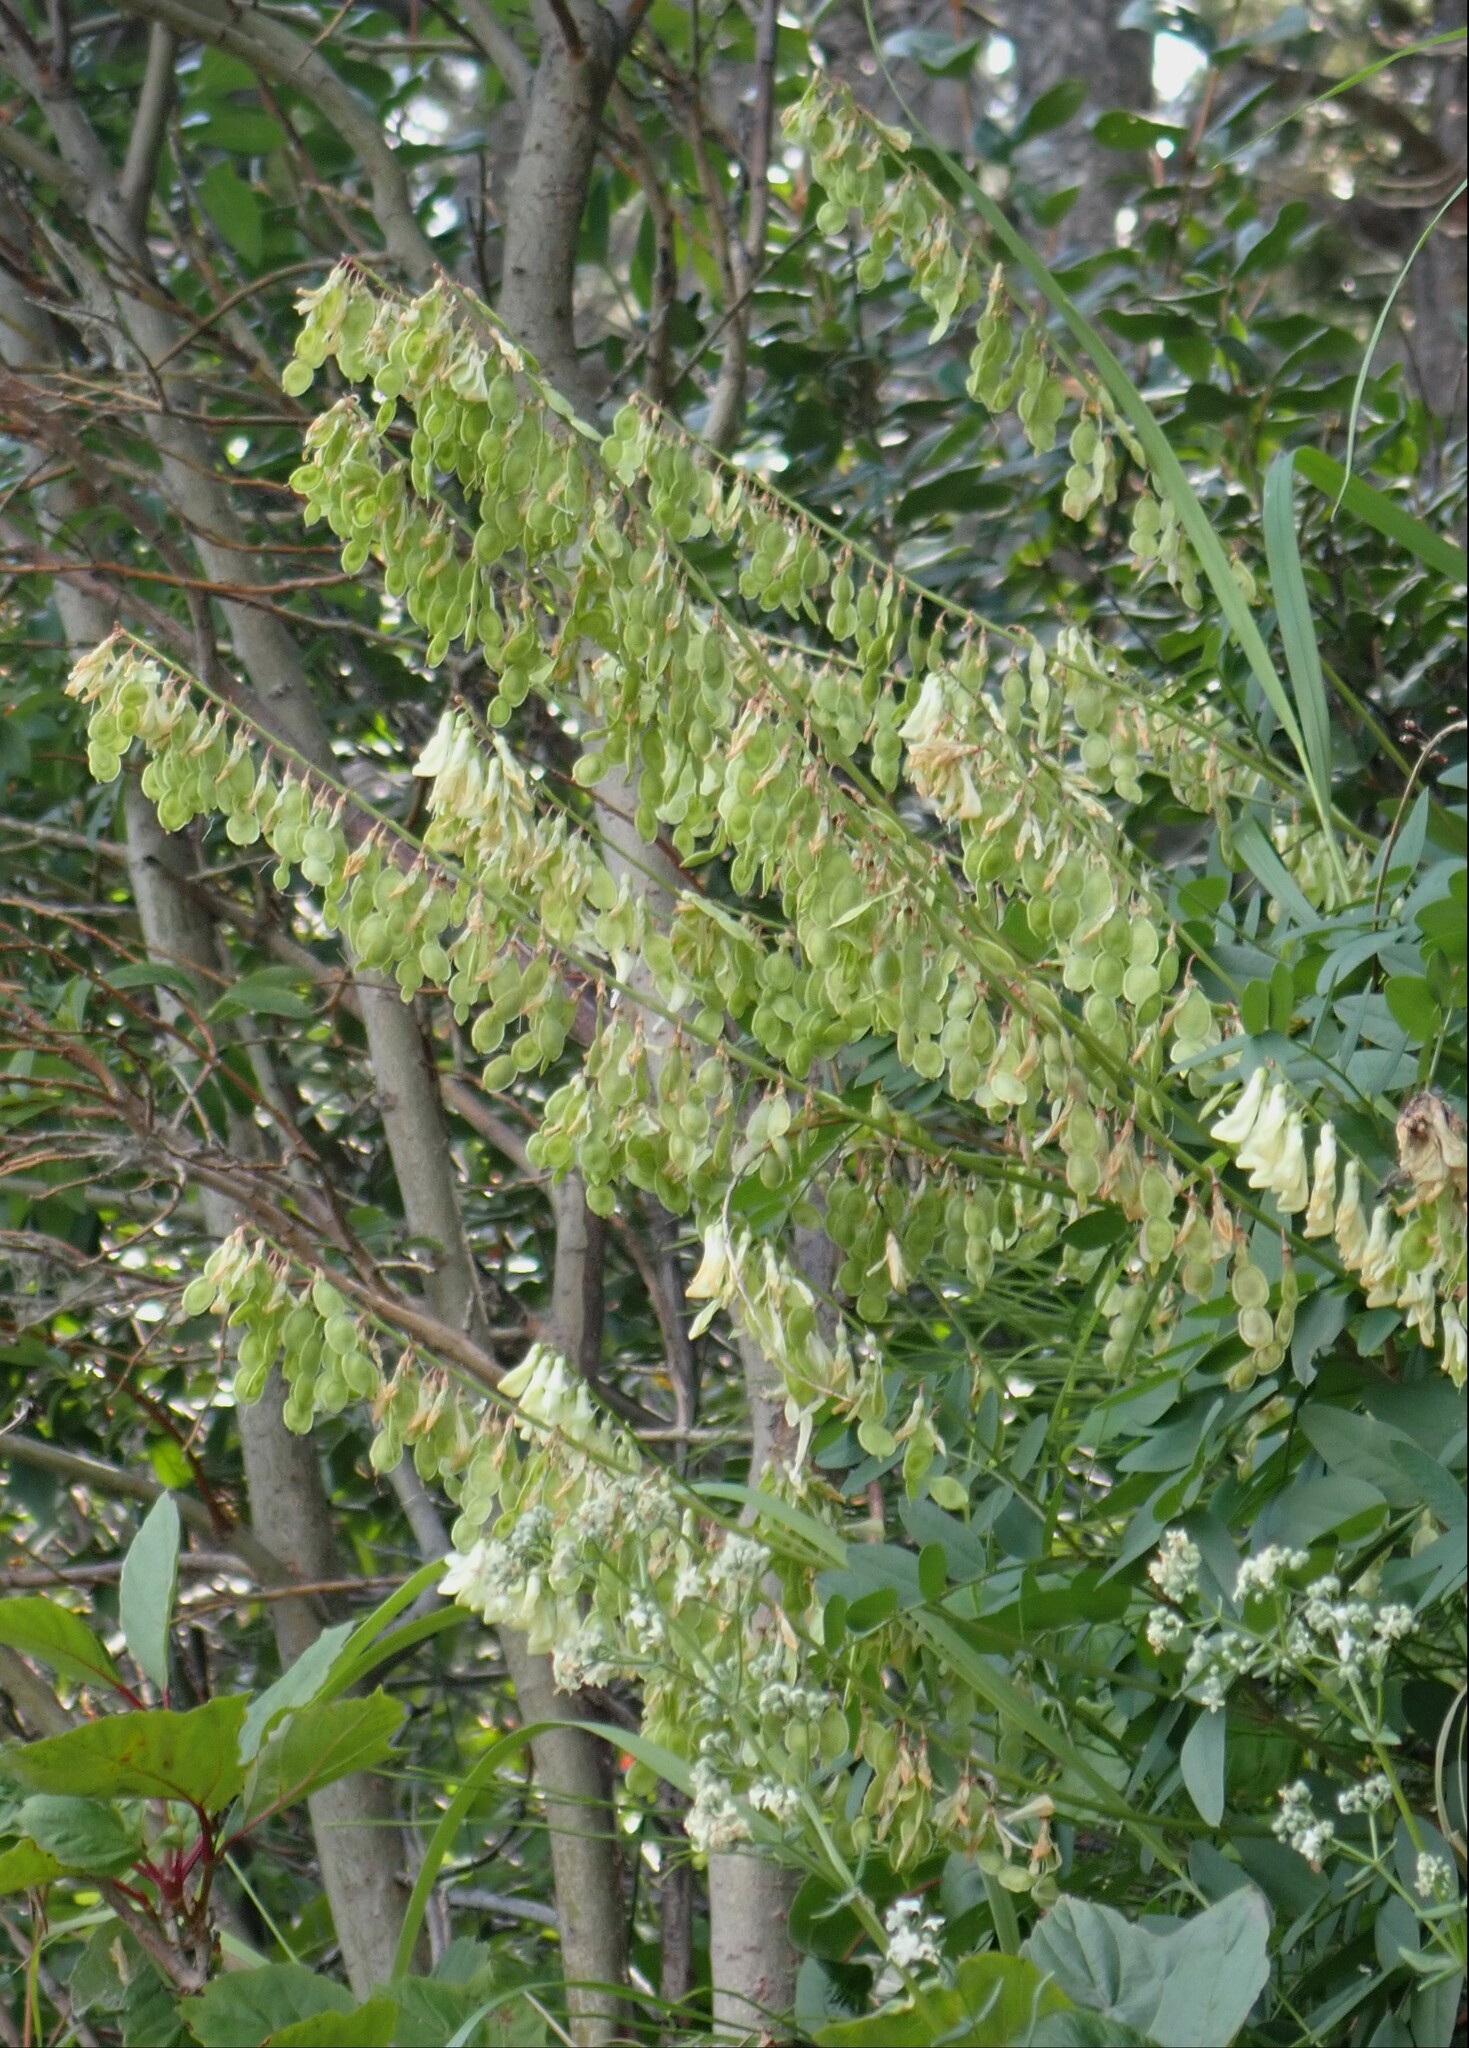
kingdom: Plantae
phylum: Tracheophyta
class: Magnoliopsida
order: Fabales
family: Fabaceae
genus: Hedysarum
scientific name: Hedysarum sulphurescens
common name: Sulphur hedysarum
